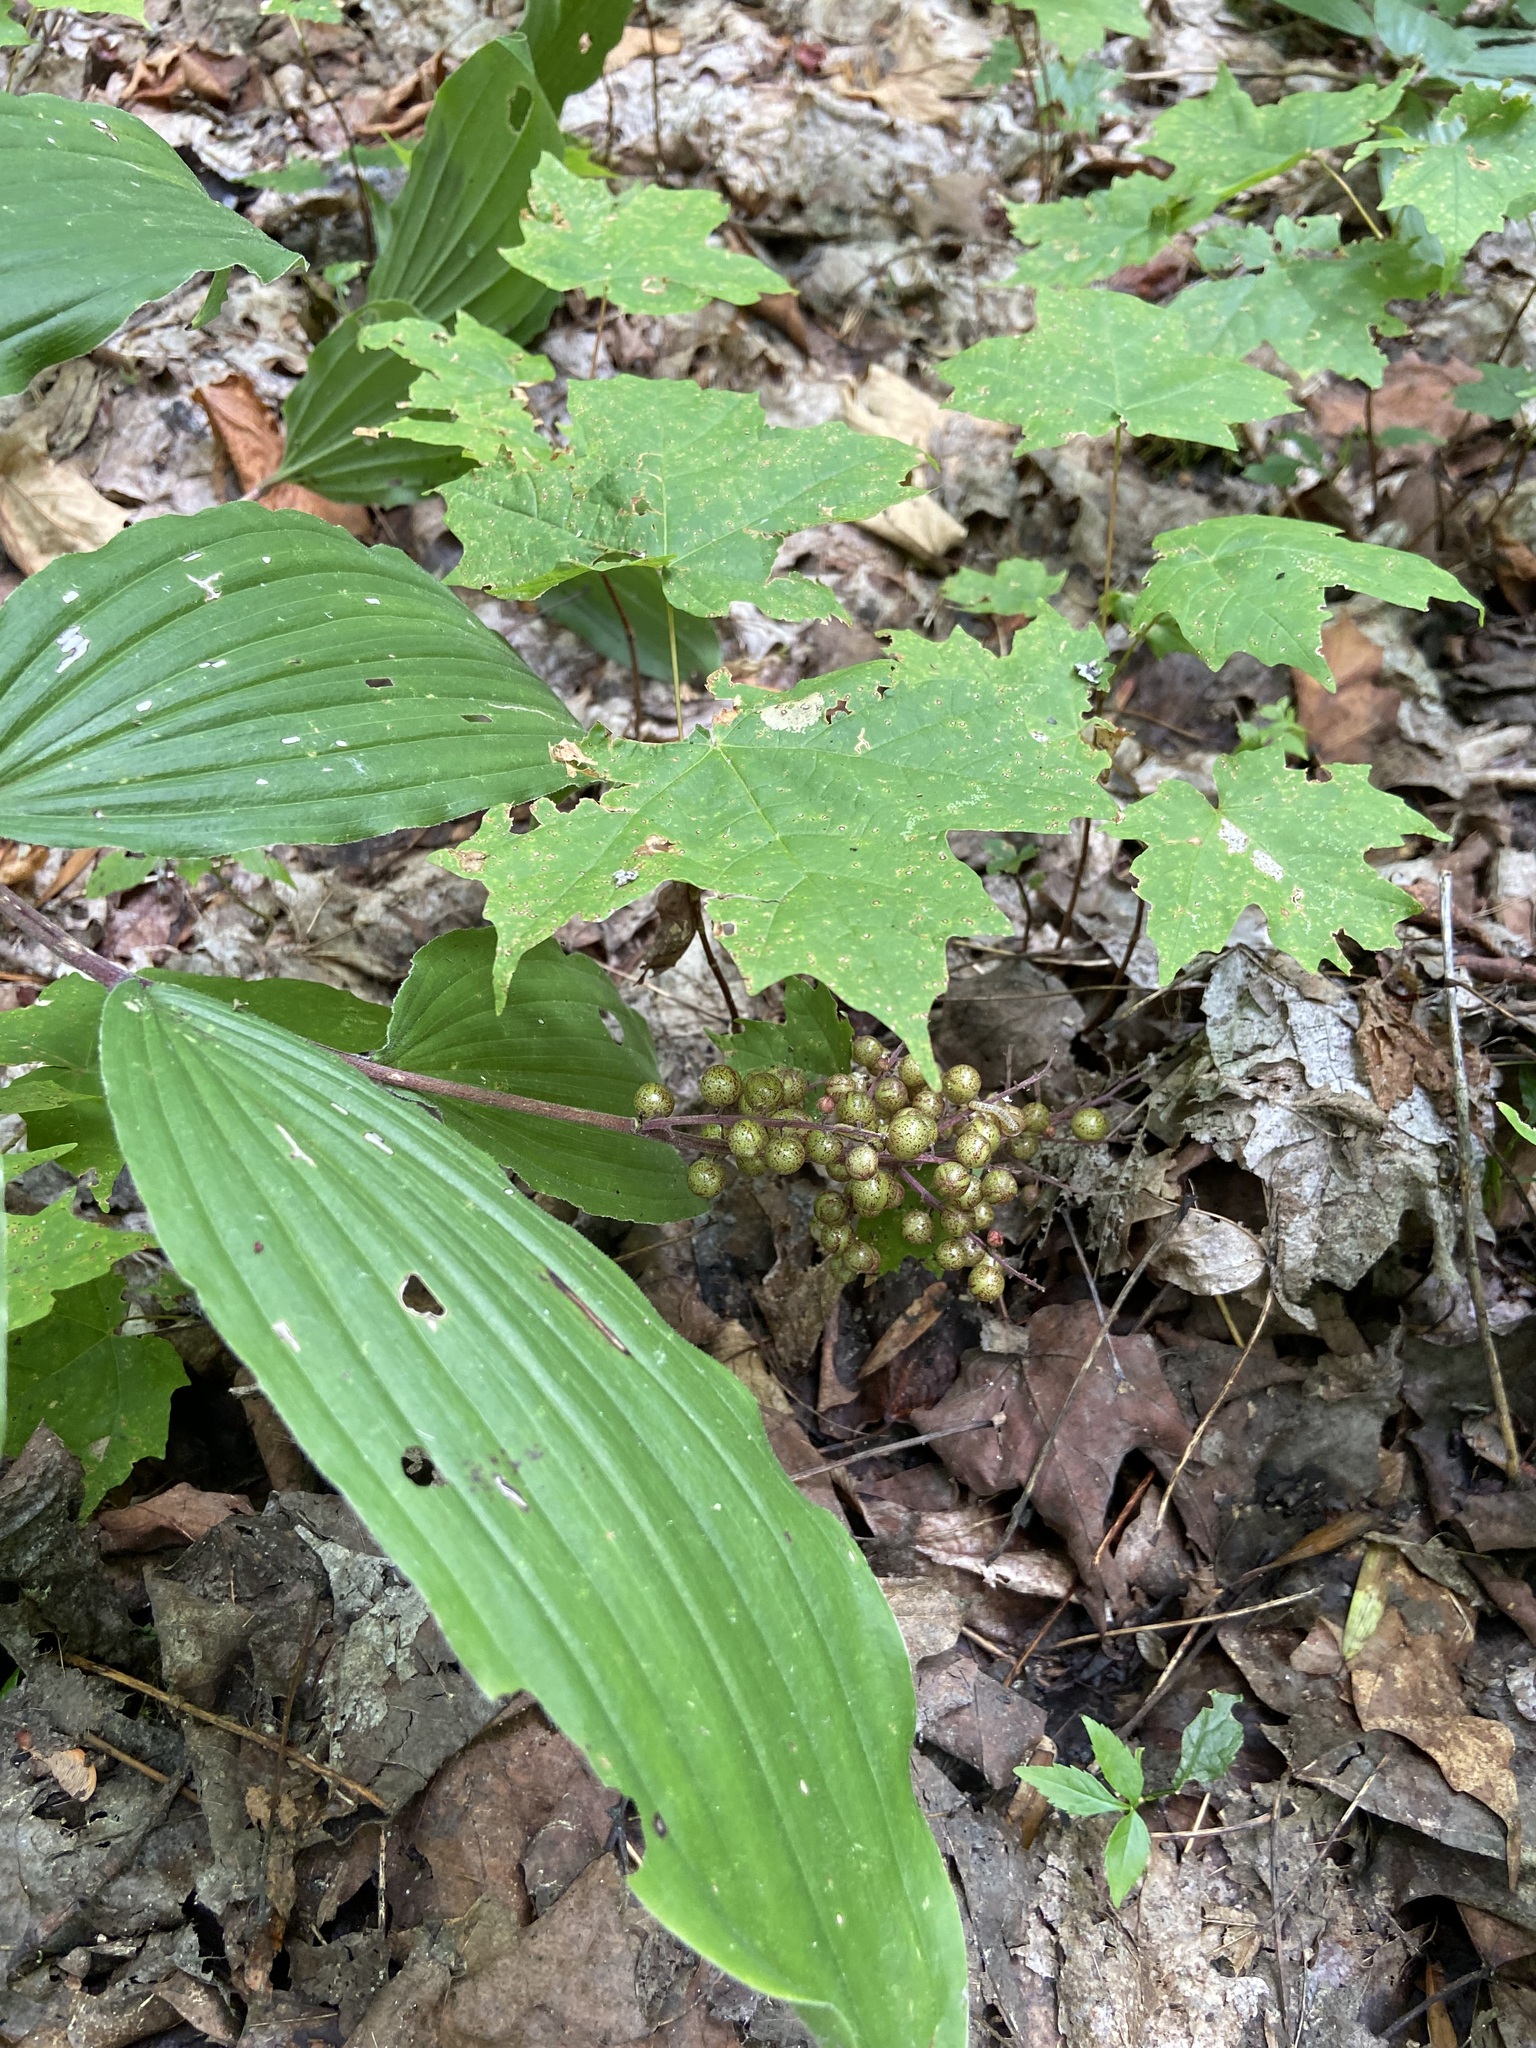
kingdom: Plantae
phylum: Tracheophyta
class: Liliopsida
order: Asparagales
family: Asparagaceae
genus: Maianthemum
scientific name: Maianthemum racemosum
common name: False spikenard
